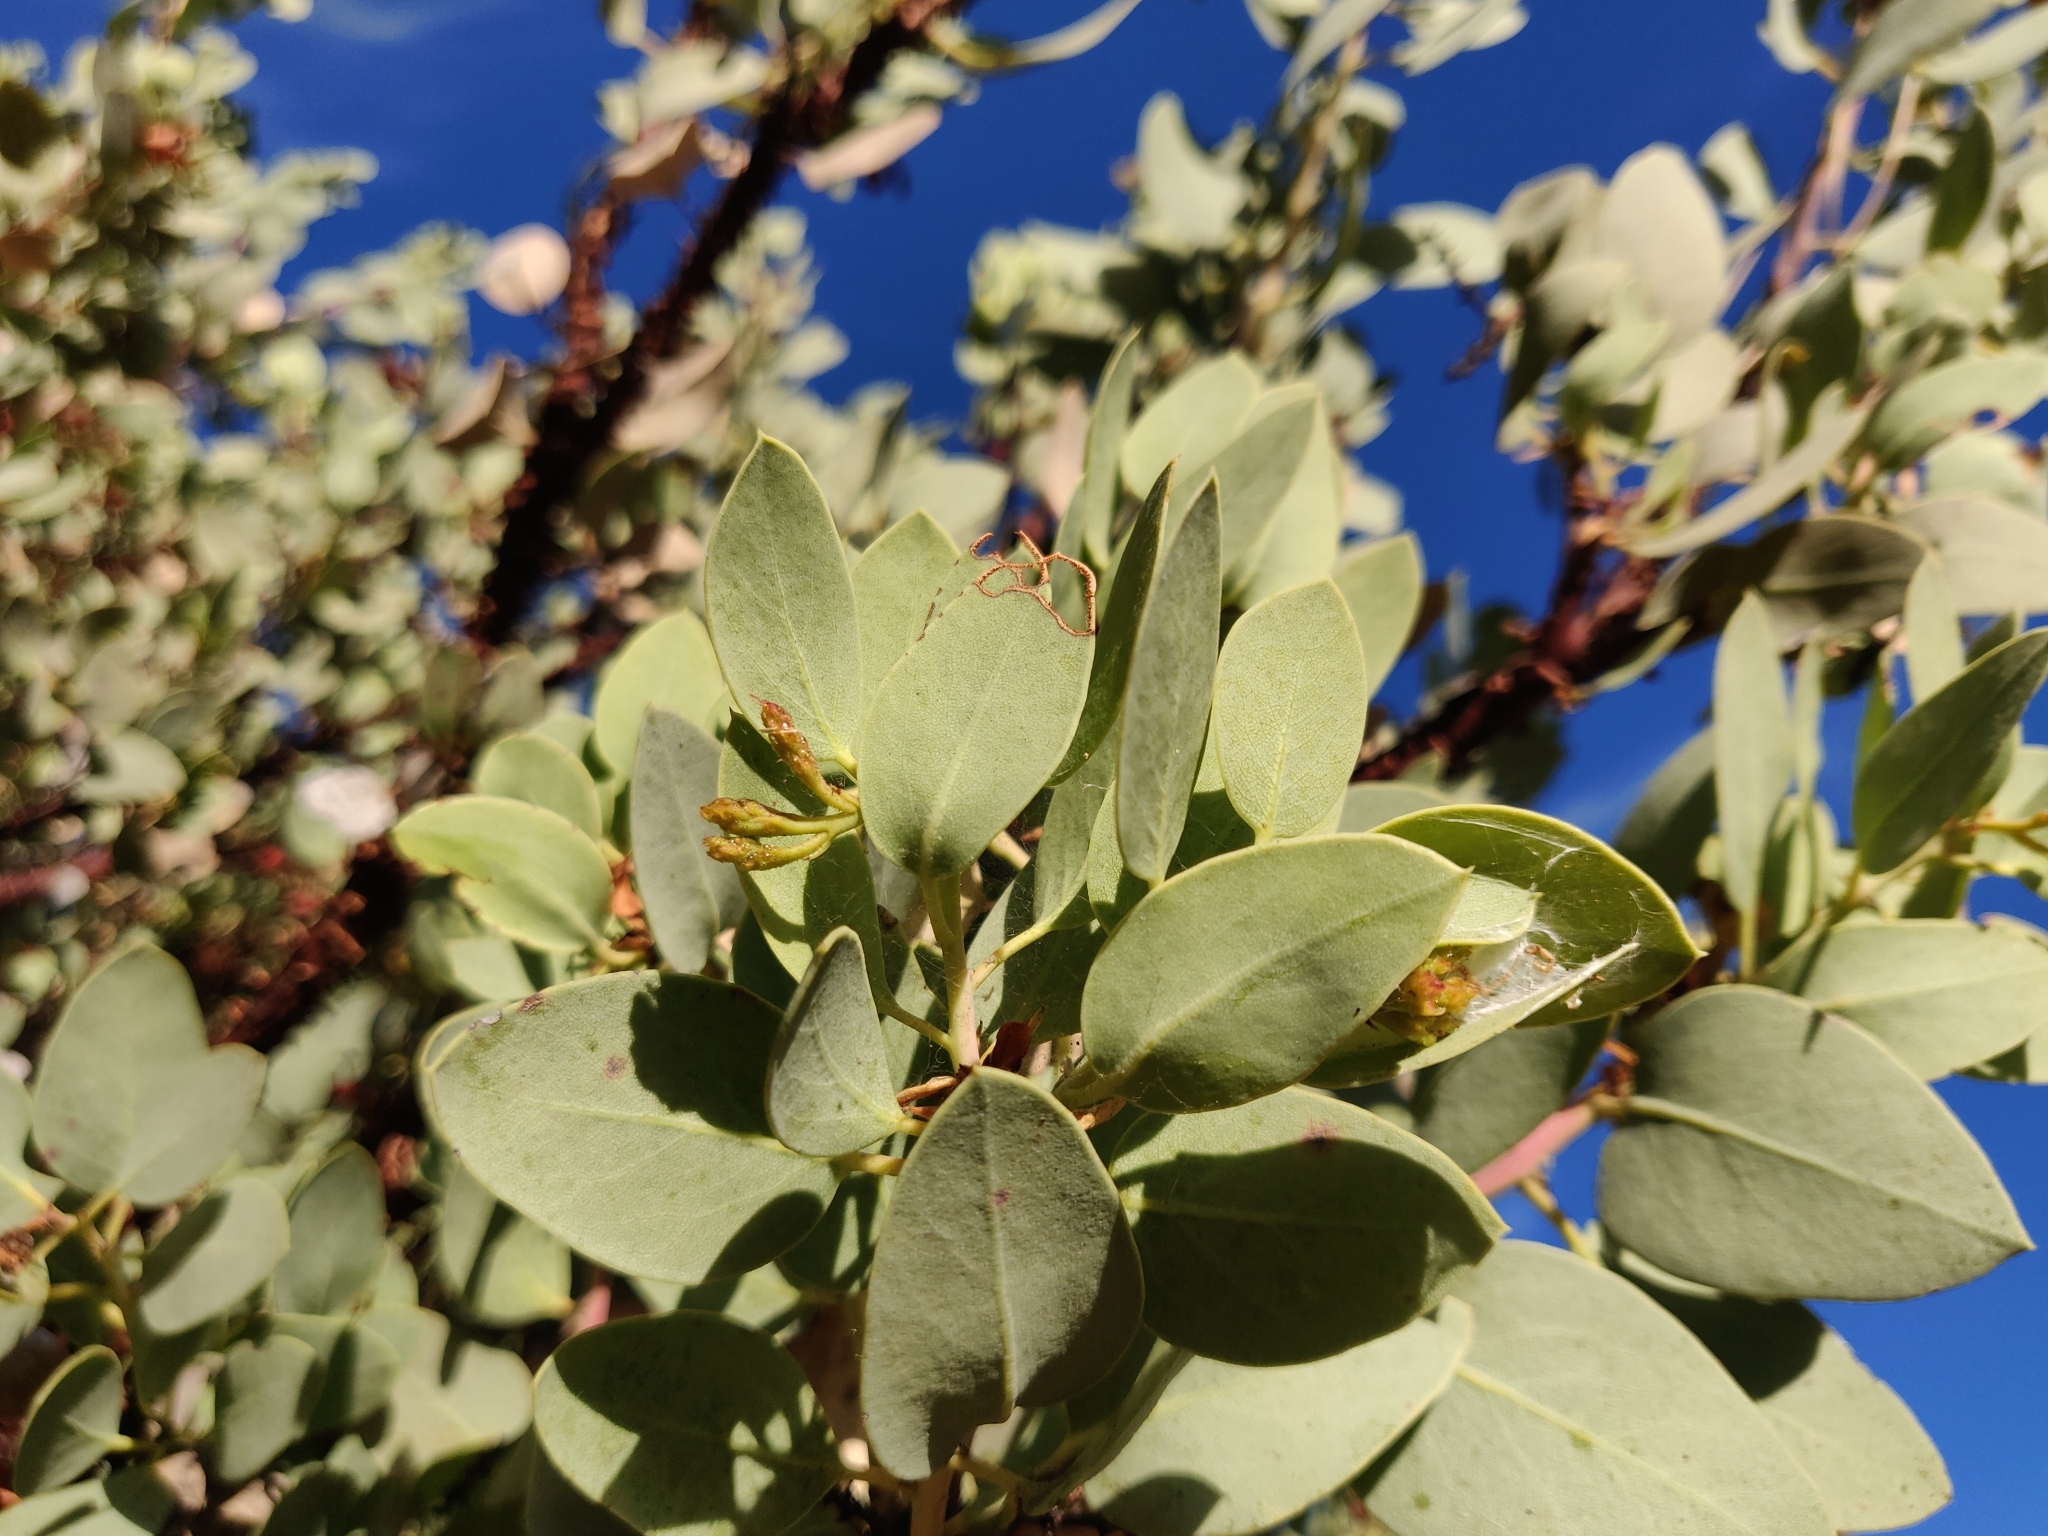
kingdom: Plantae
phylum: Tracheophyta
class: Magnoliopsida
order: Ericales
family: Ericaceae
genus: Arctostaphylos
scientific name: Arctostaphylos viscida
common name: White-leaf manzanita
